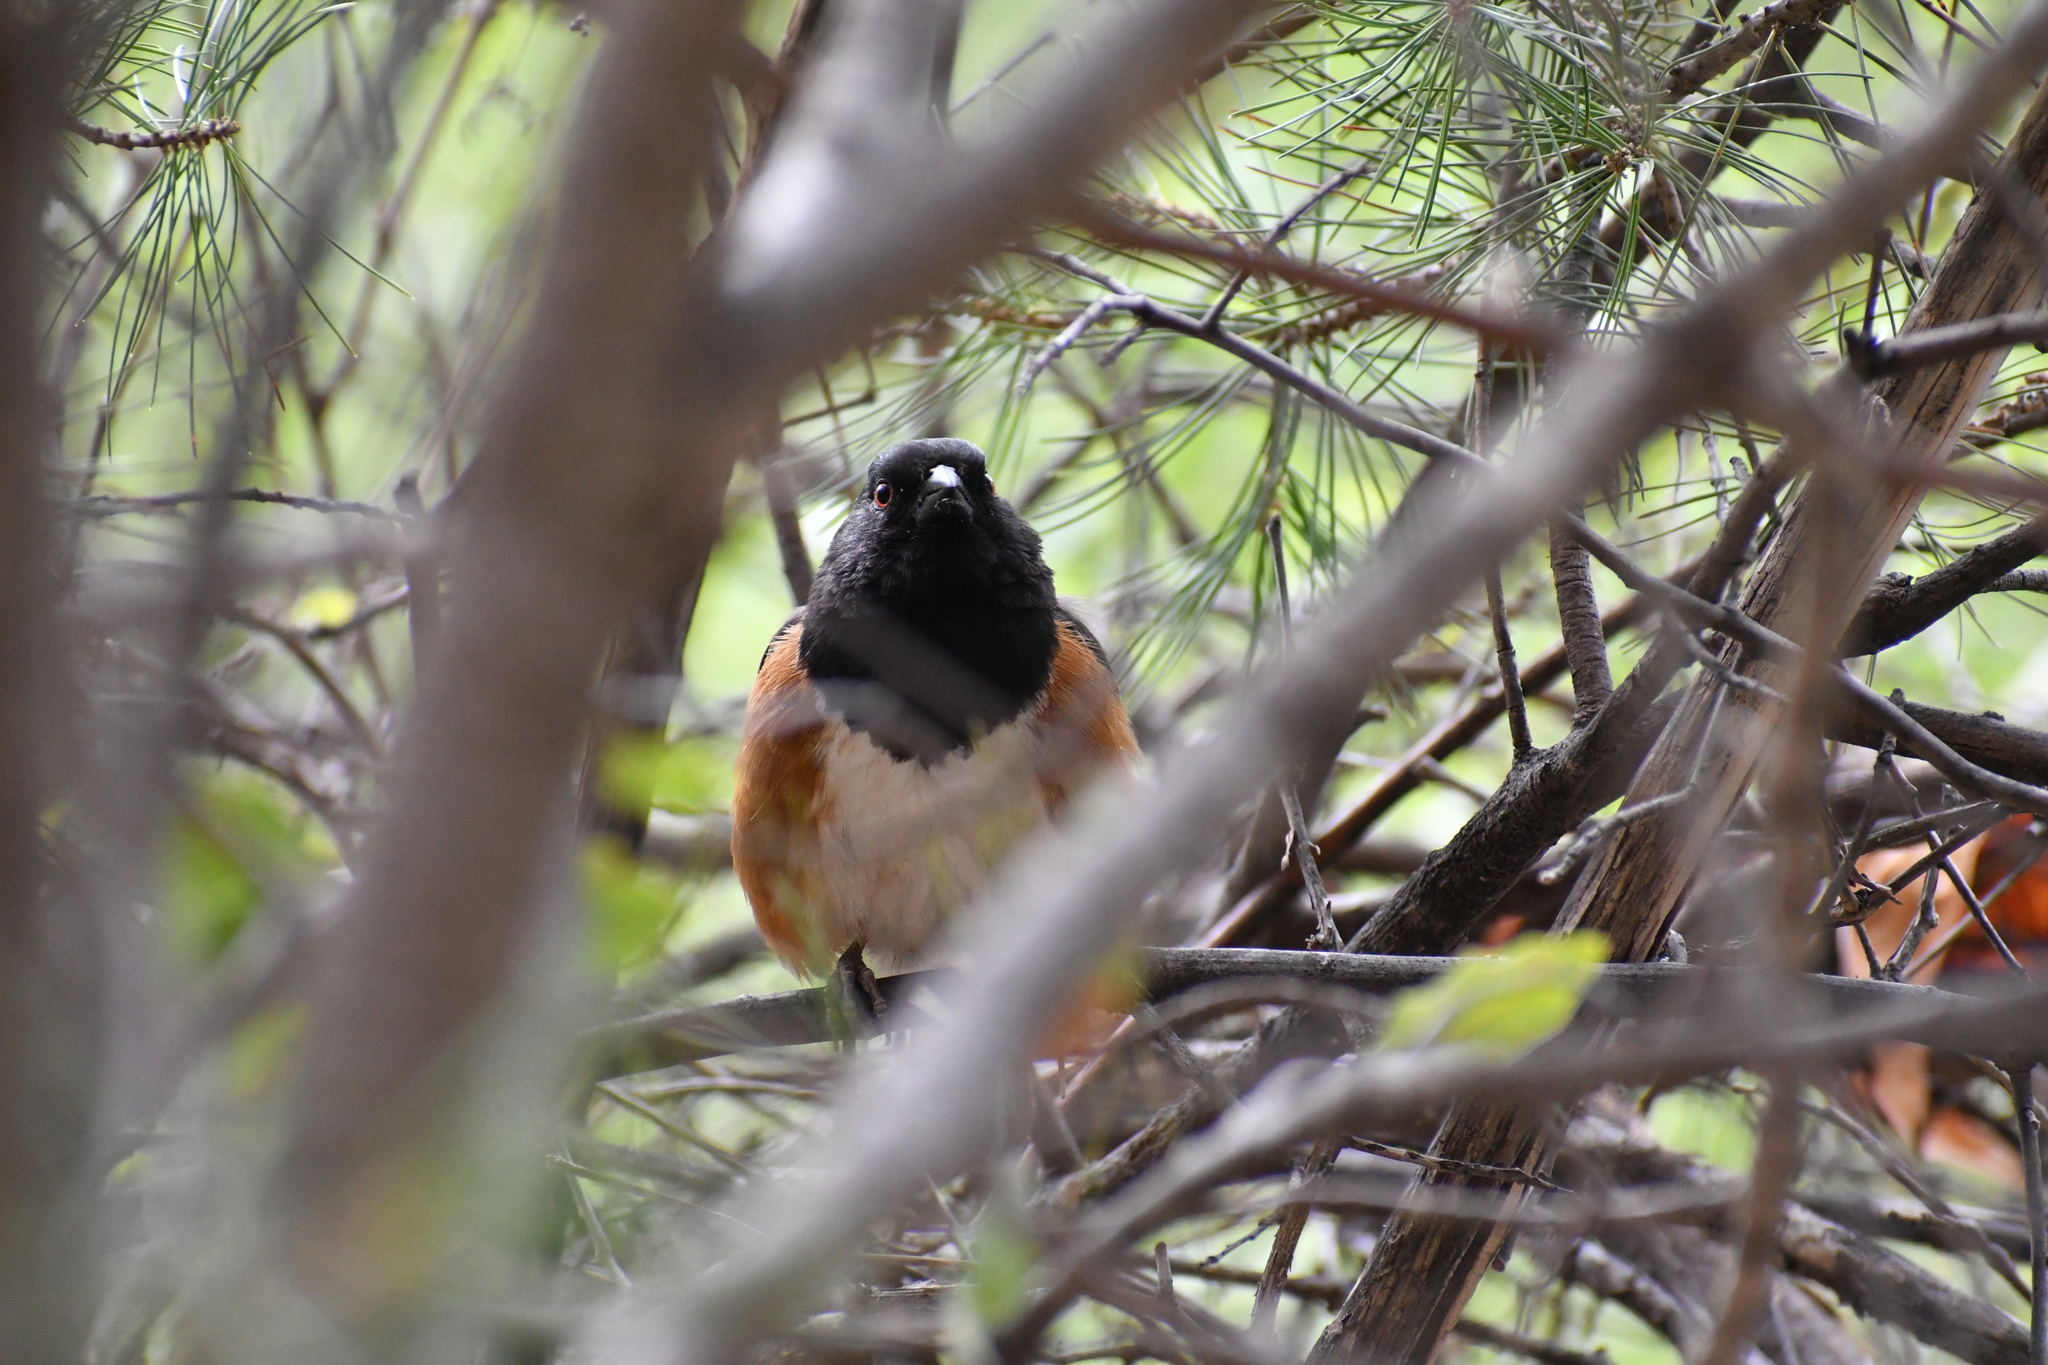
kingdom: Animalia
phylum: Chordata
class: Aves
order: Passeriformes
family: Passerellidae
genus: Pipilo
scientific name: Pipilo maculatus
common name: Spotted towhee
